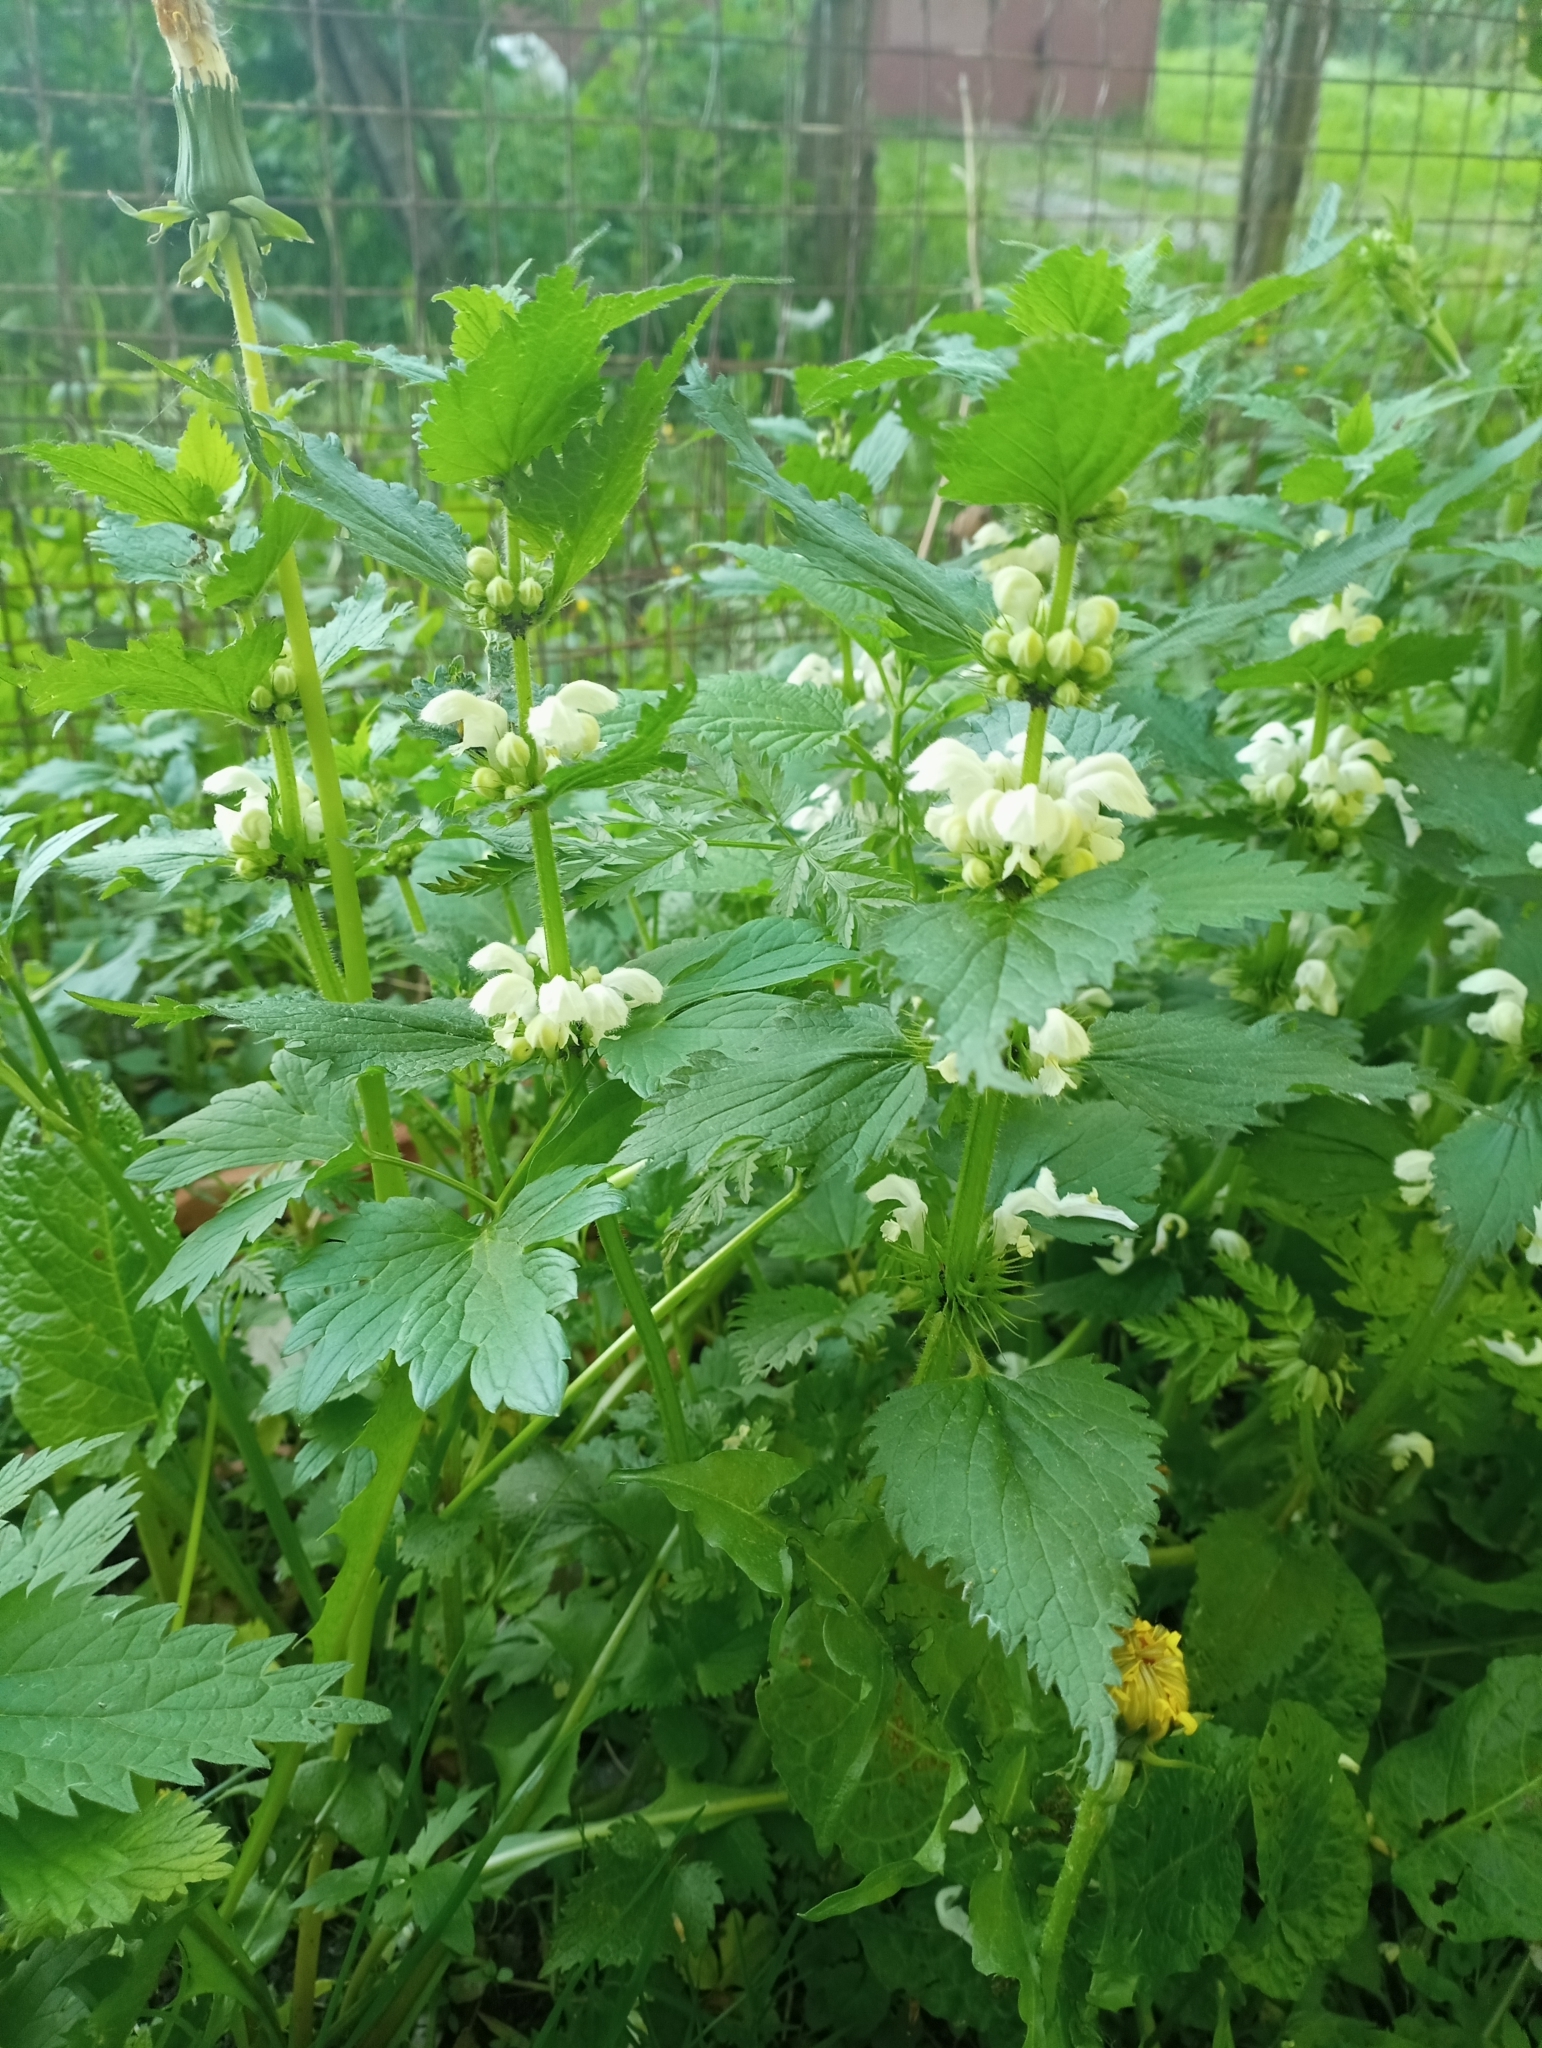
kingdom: Plantae
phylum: Tracheophyta
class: Magnoliopsida
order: Lamiales
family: Lamiaceae
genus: Lamium
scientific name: Lamium album
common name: White dead-nettle
